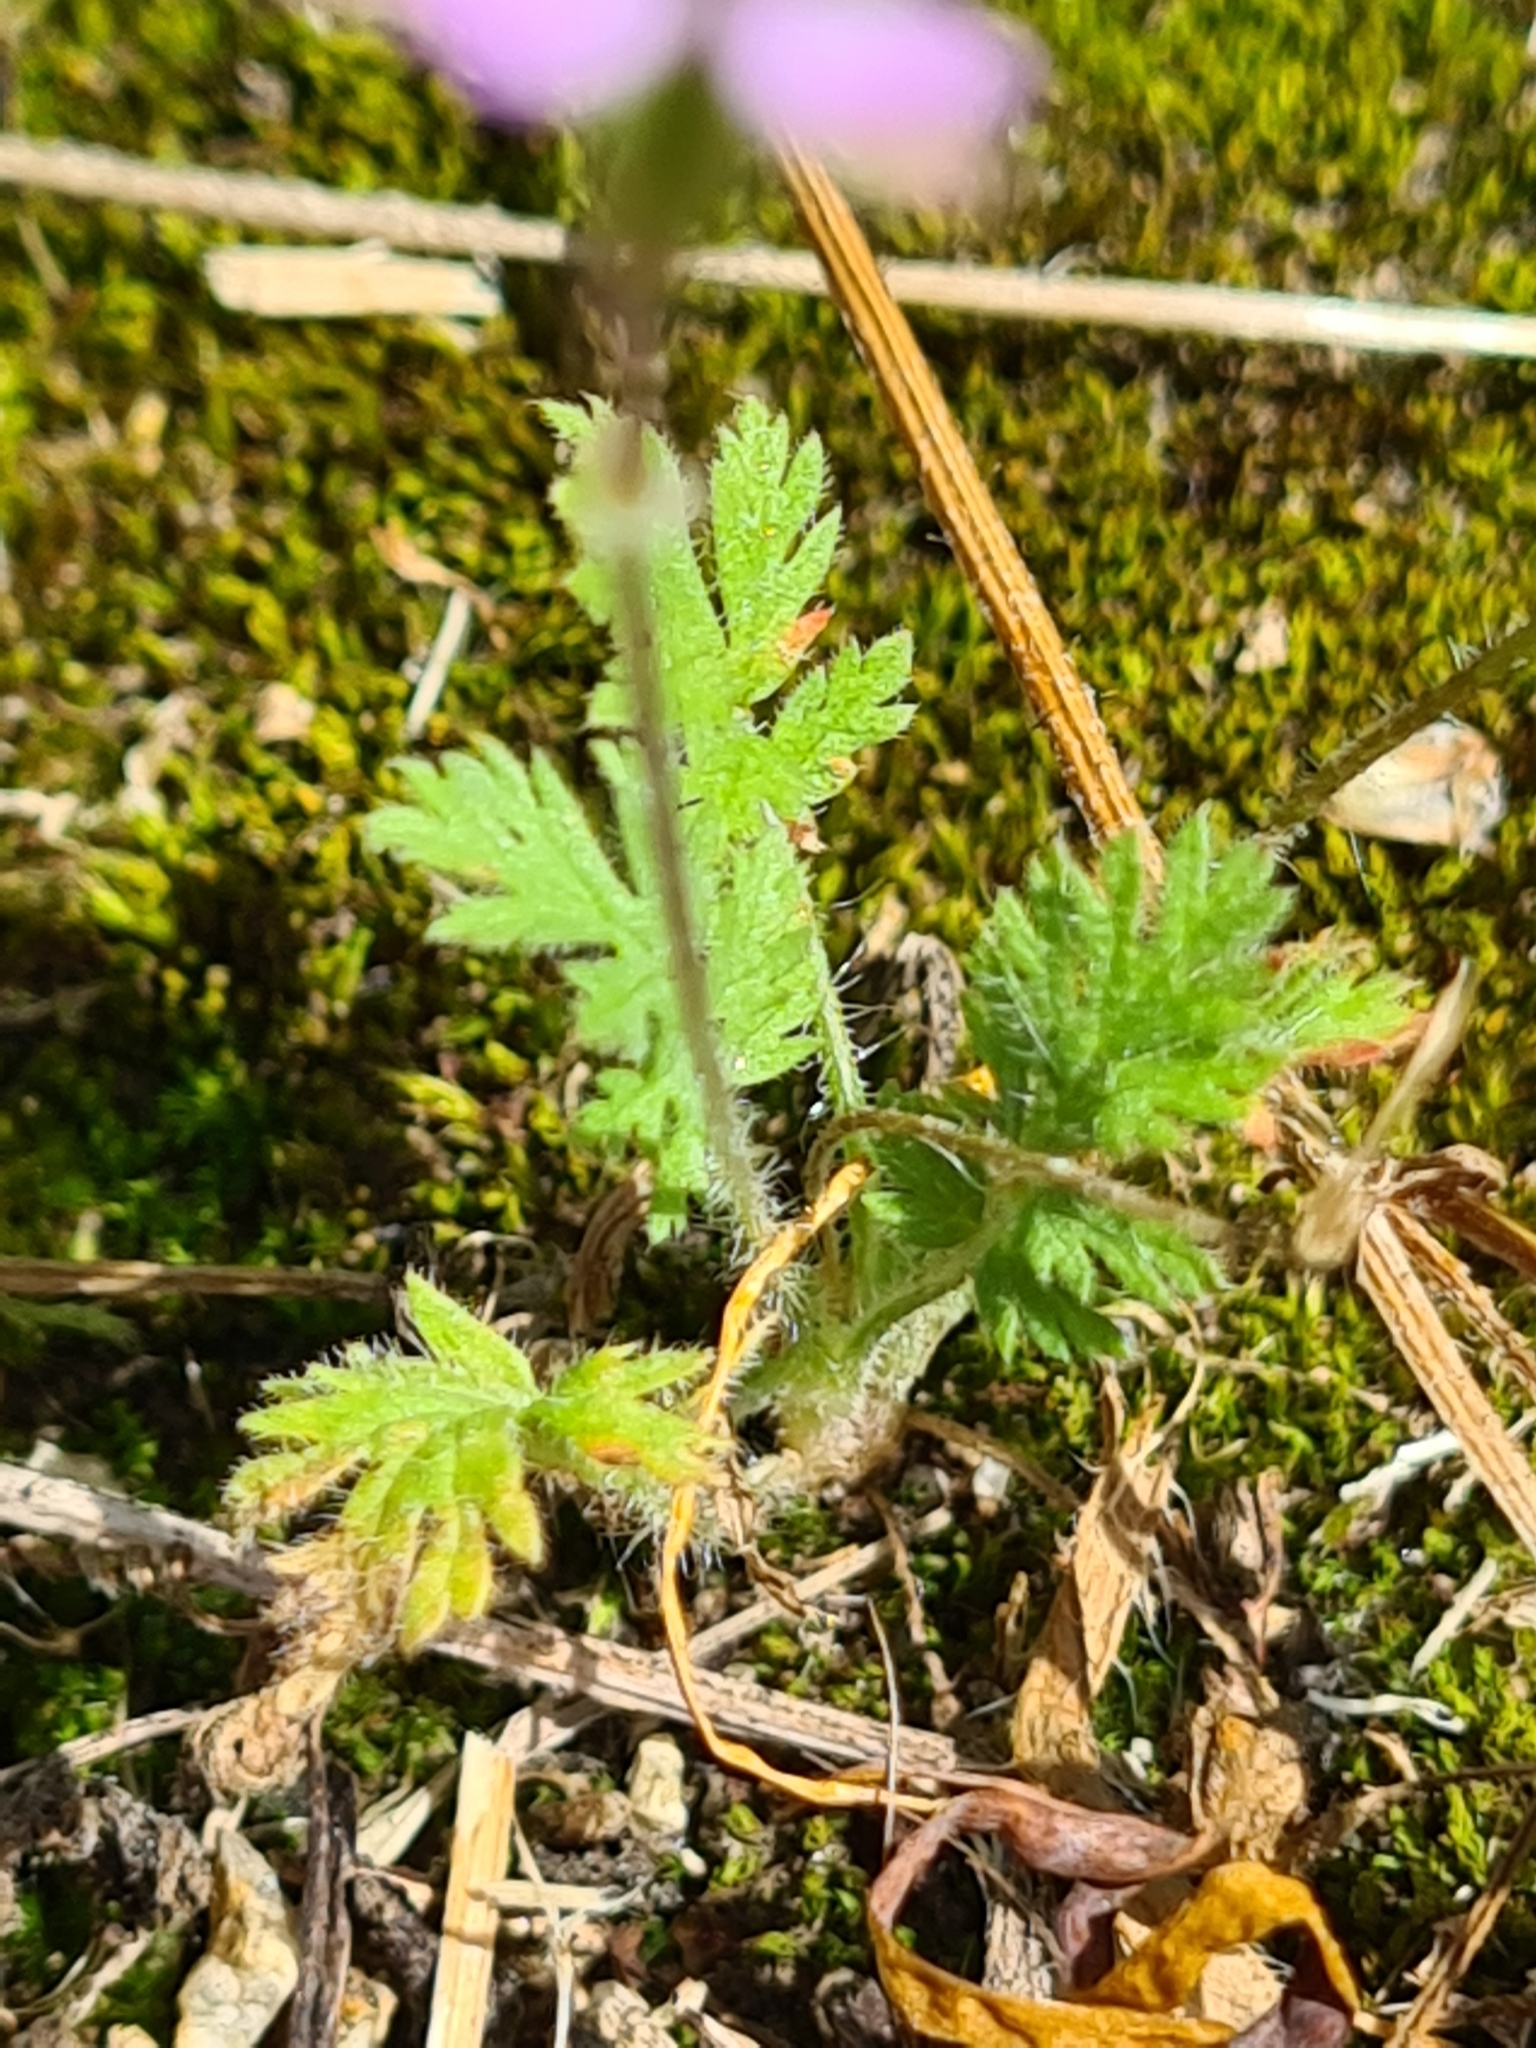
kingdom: Plantae
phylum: Tracheophyta
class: Magnoliopsida
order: Geraniales
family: Geraniaceae
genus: Erodium
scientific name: Erodium cicutarium
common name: Common stork's-bill
